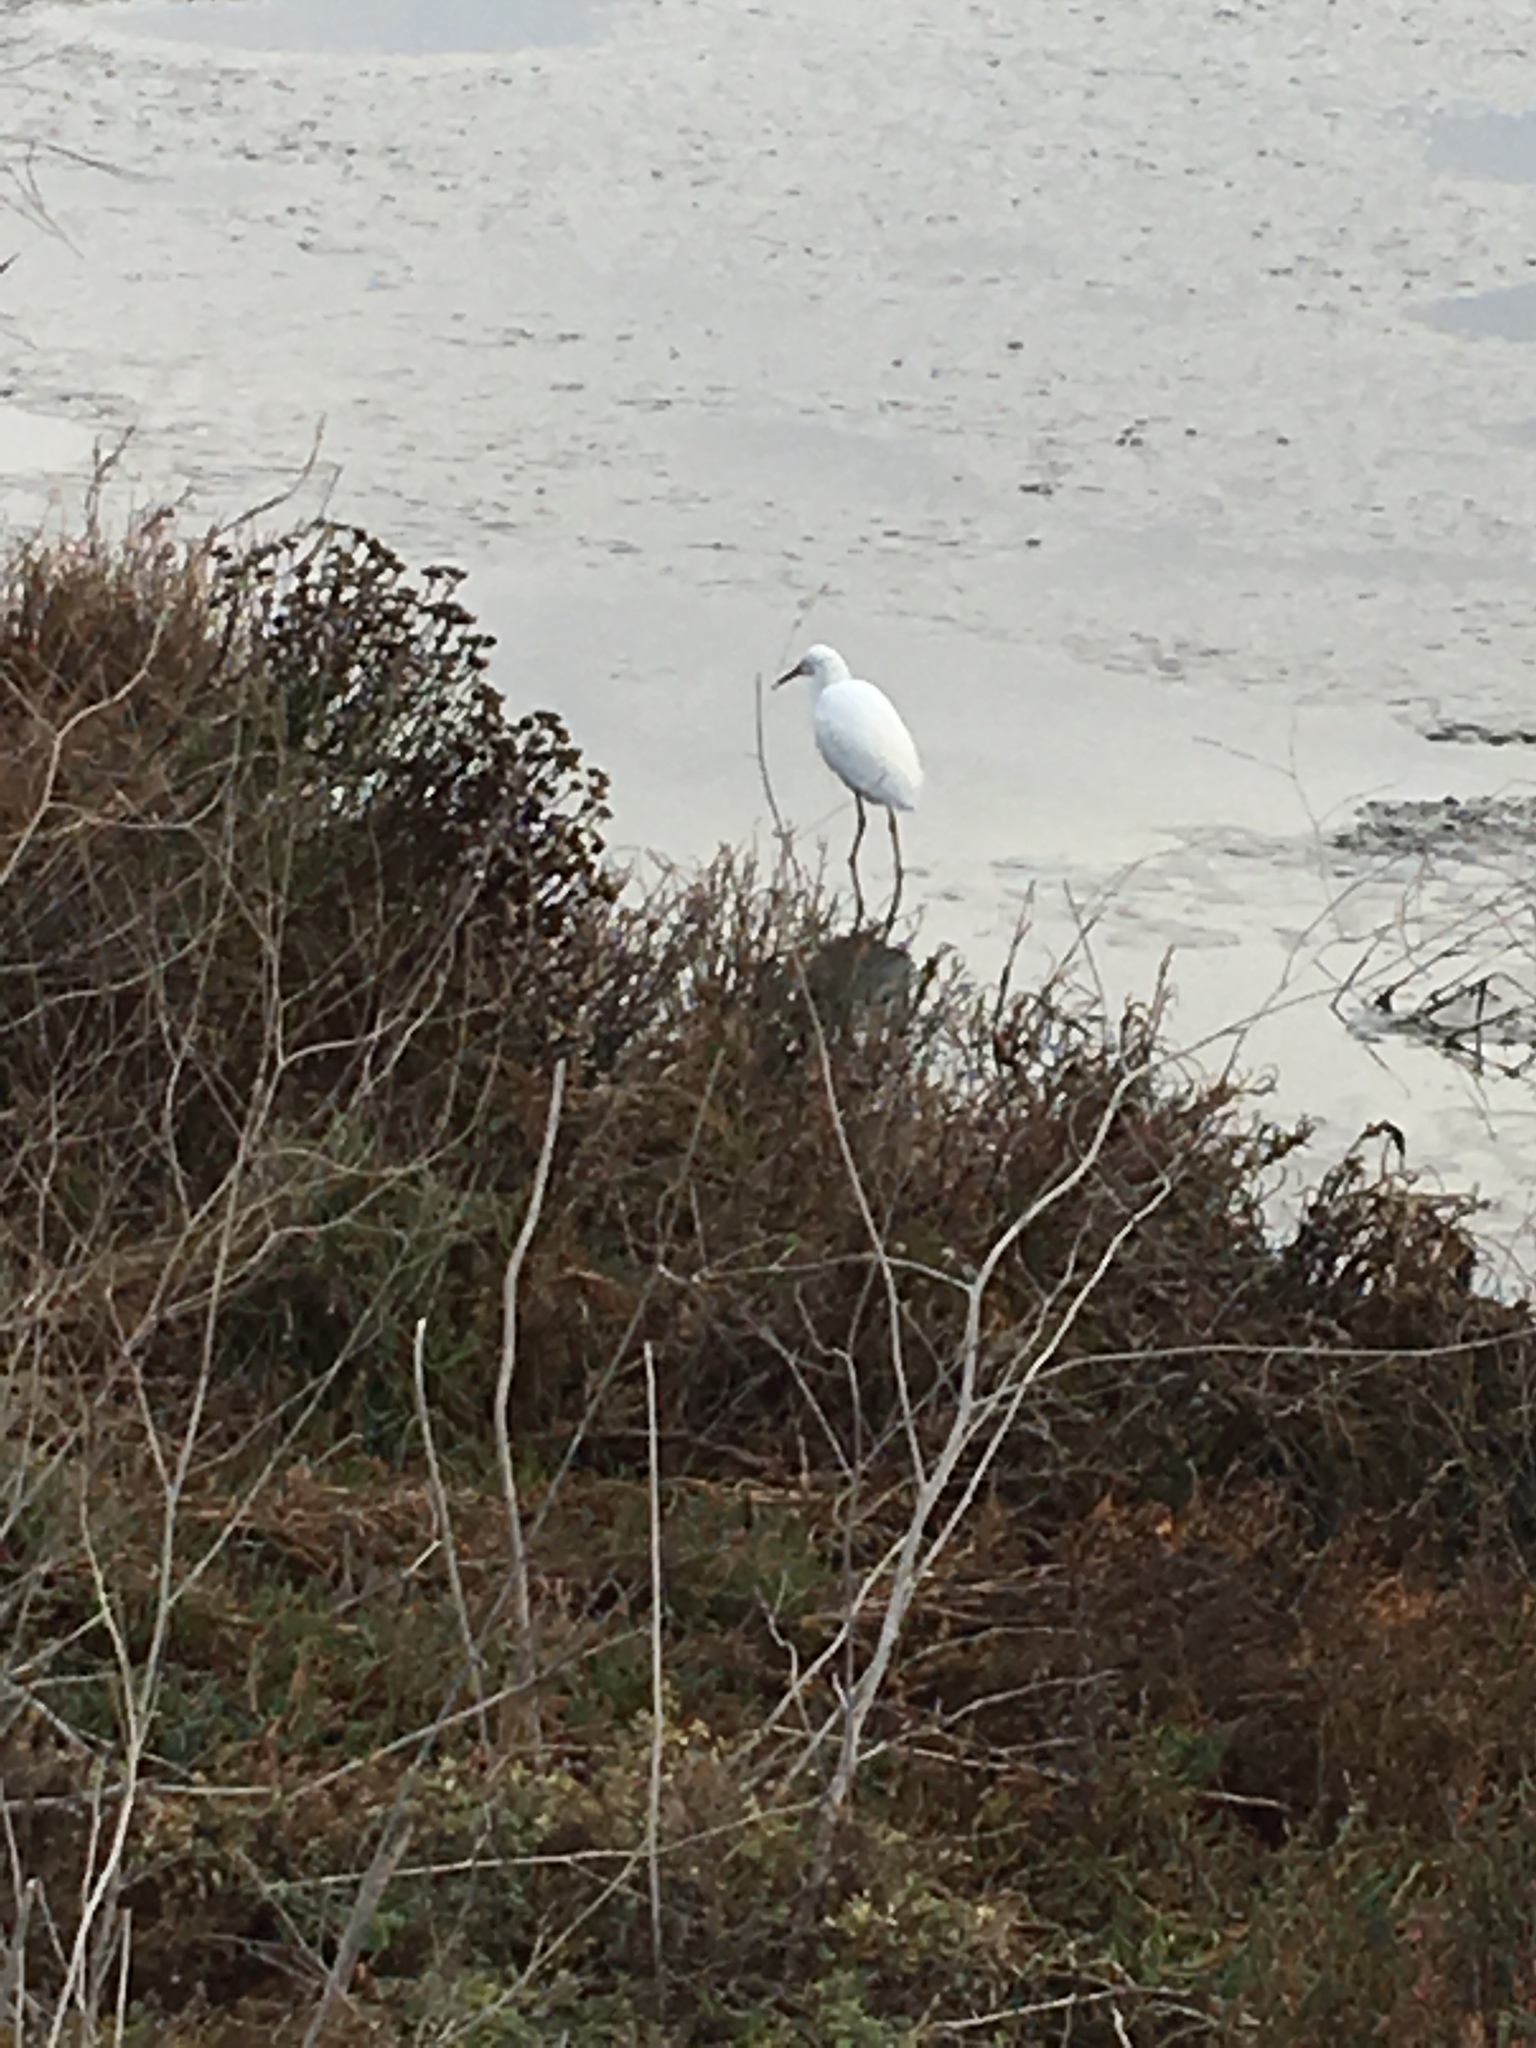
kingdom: Animalia
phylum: Chordata
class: Aves
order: Pelecaniformes
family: Ardeidae
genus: Egretta
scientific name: Egretta thula
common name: Snowy egret
